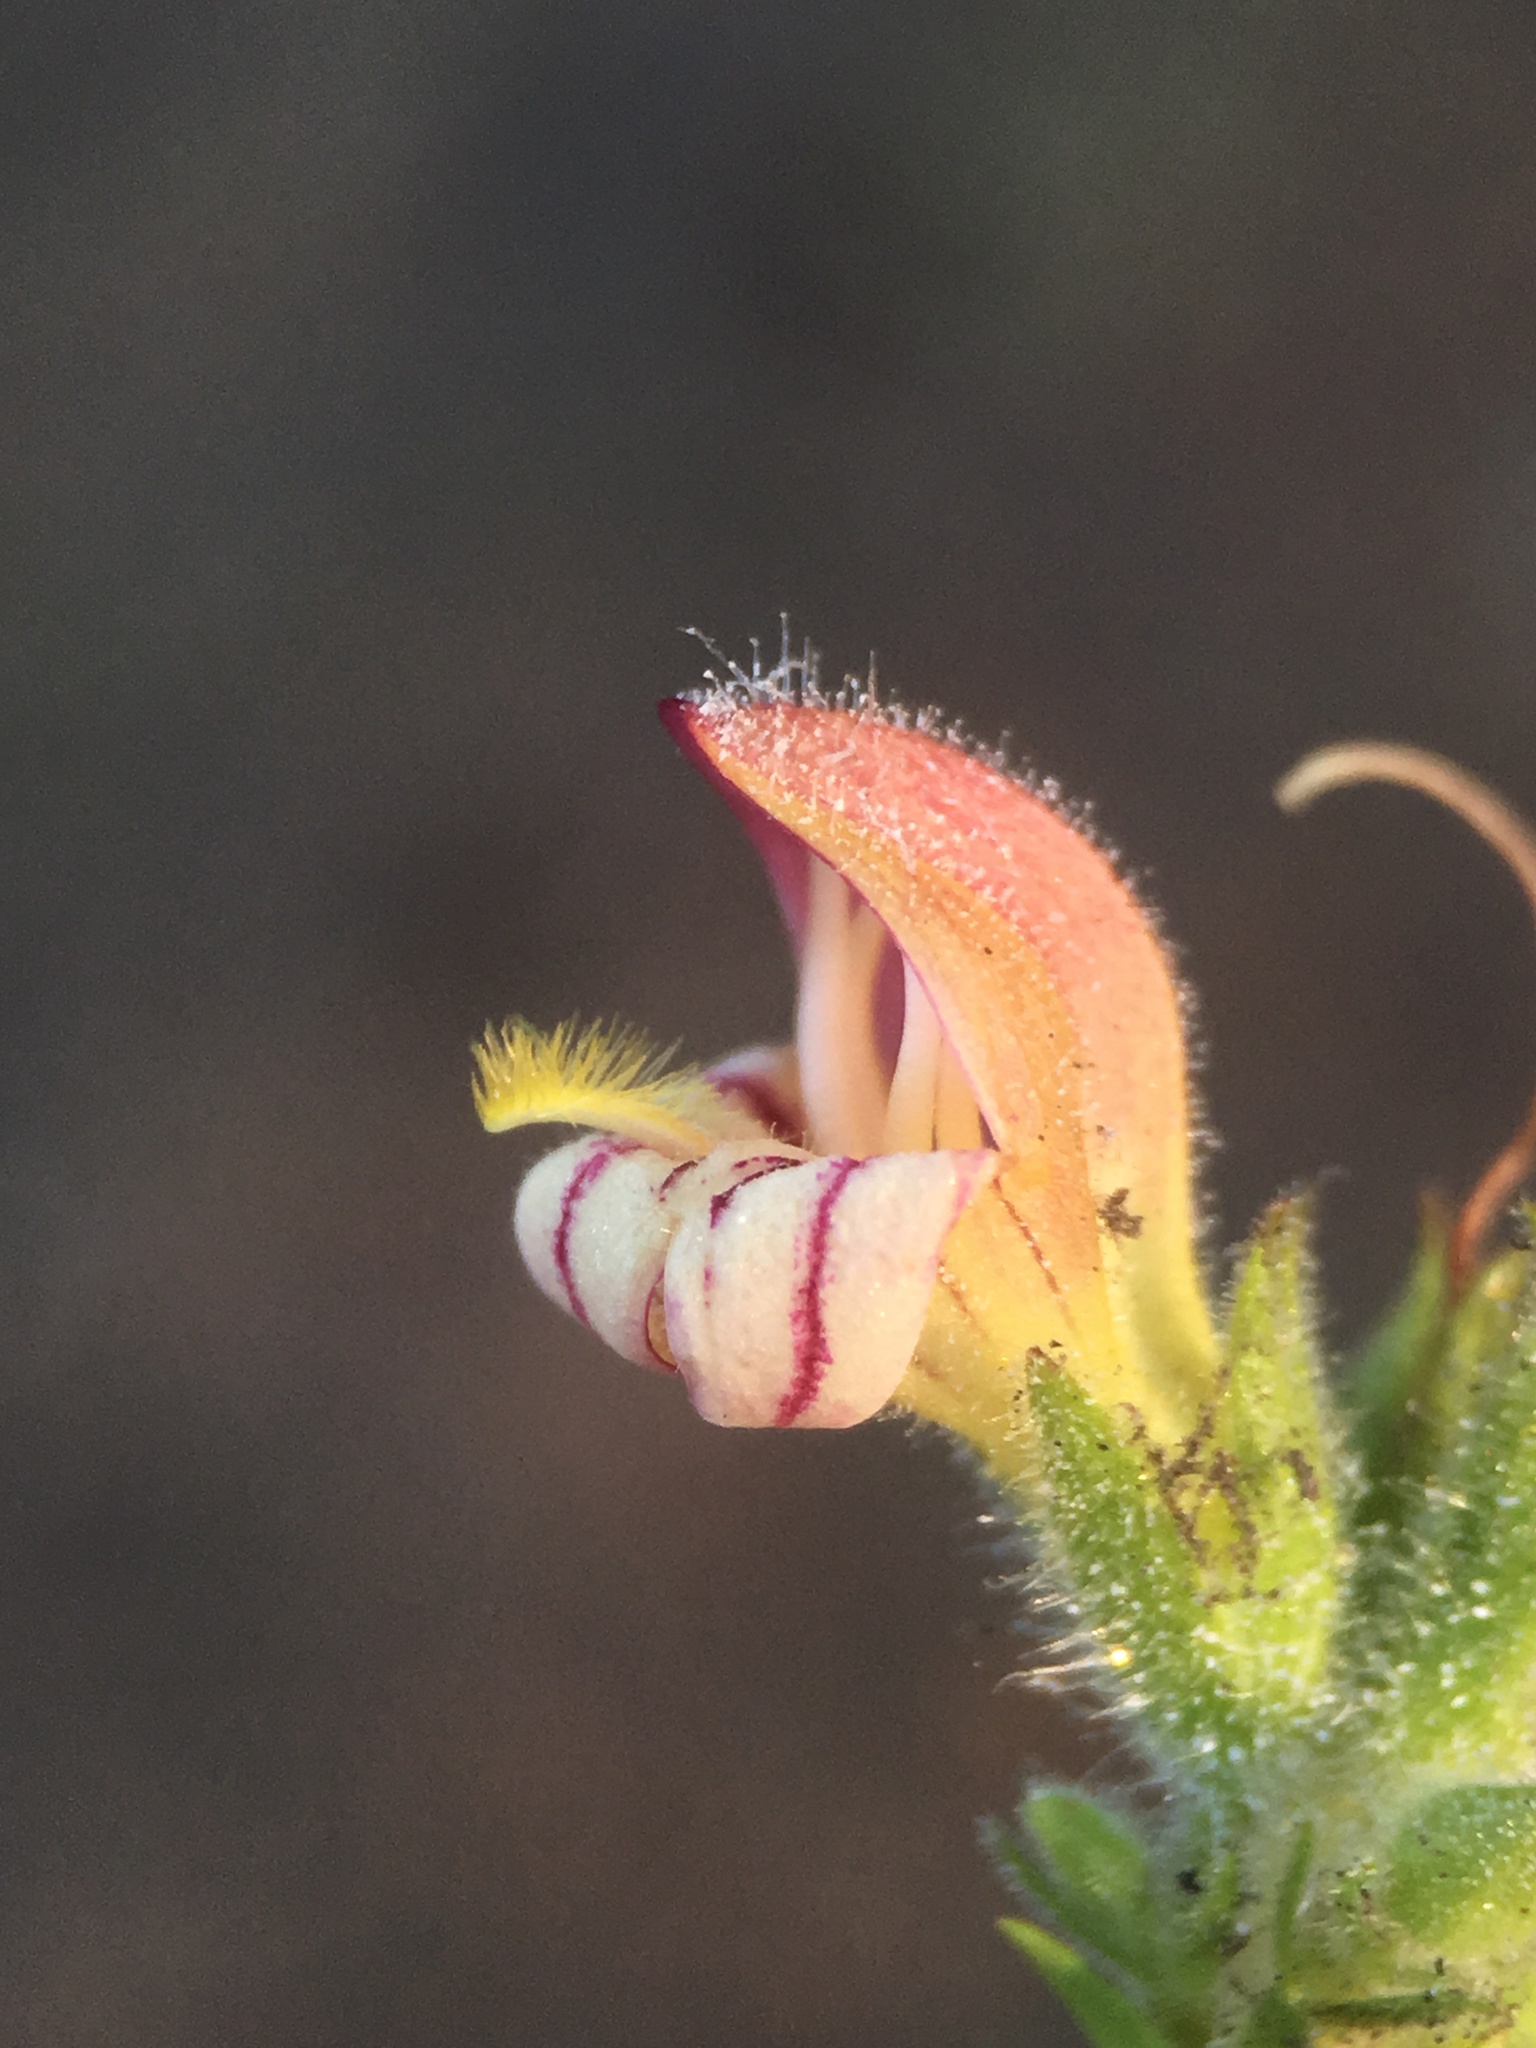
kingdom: Plantae
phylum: Tracheophyta
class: Magnoliopsida
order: Lamiales
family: Plantaginaceae
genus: Keckiella
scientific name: Keckiella lemmonii
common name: Lemmon's keckiella
